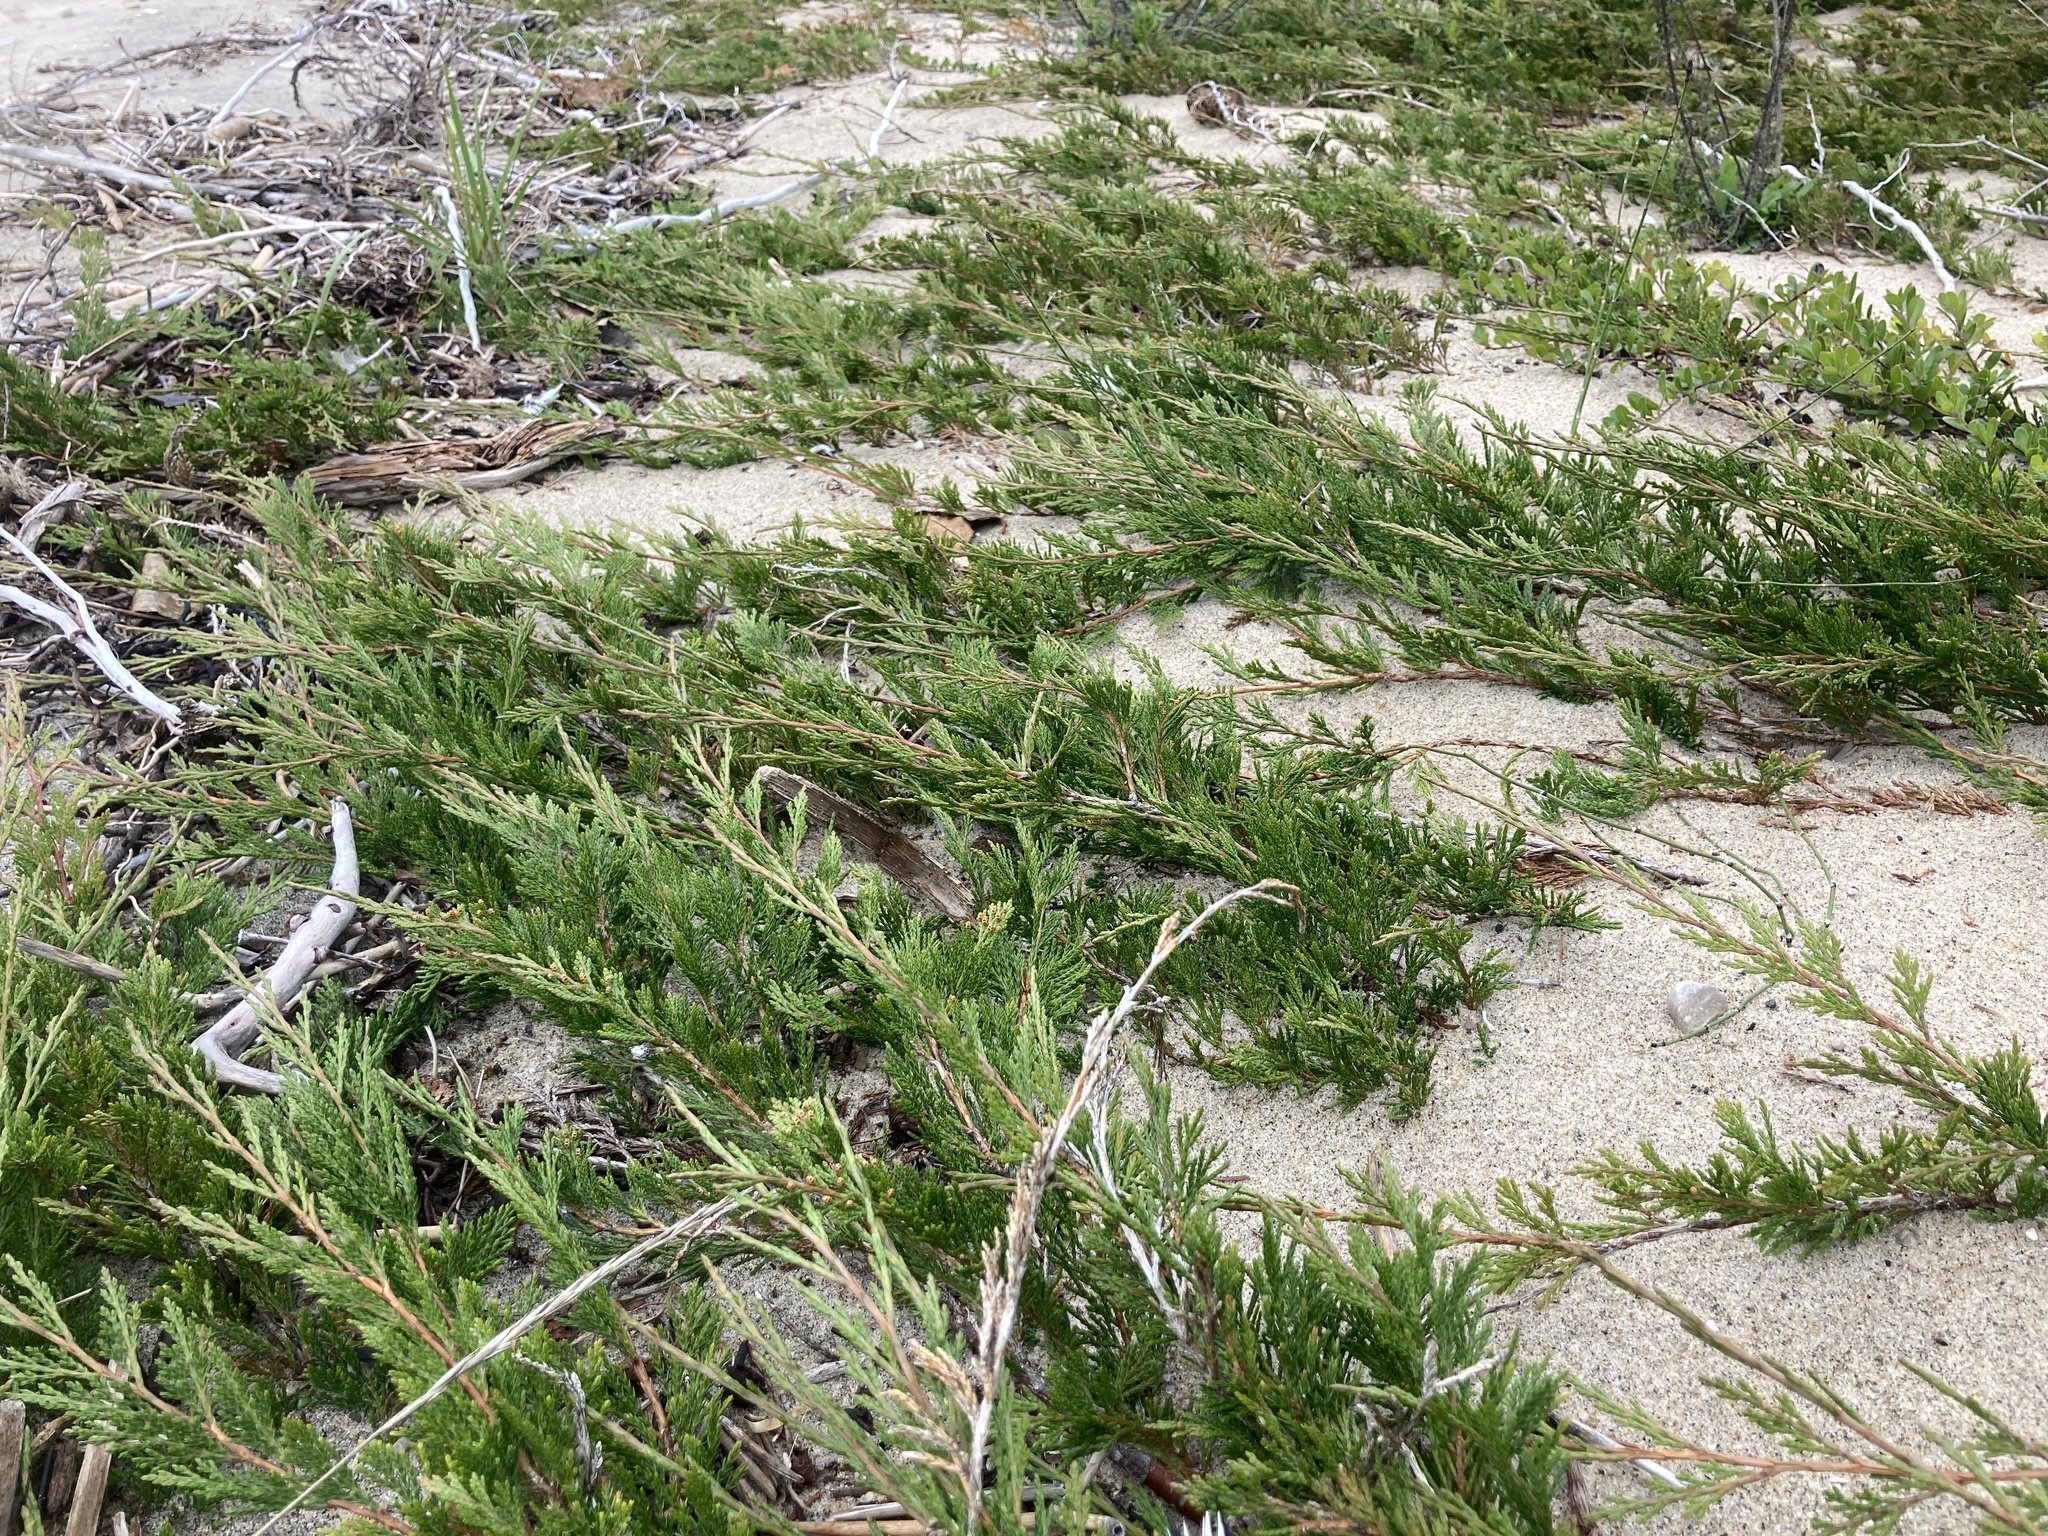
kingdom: Plantae
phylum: Tracheophyta
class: Pinopsida
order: Pinales
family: Cupressaceae
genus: Juniperus
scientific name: Juniperus horizontalis
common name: Creeping juniper
